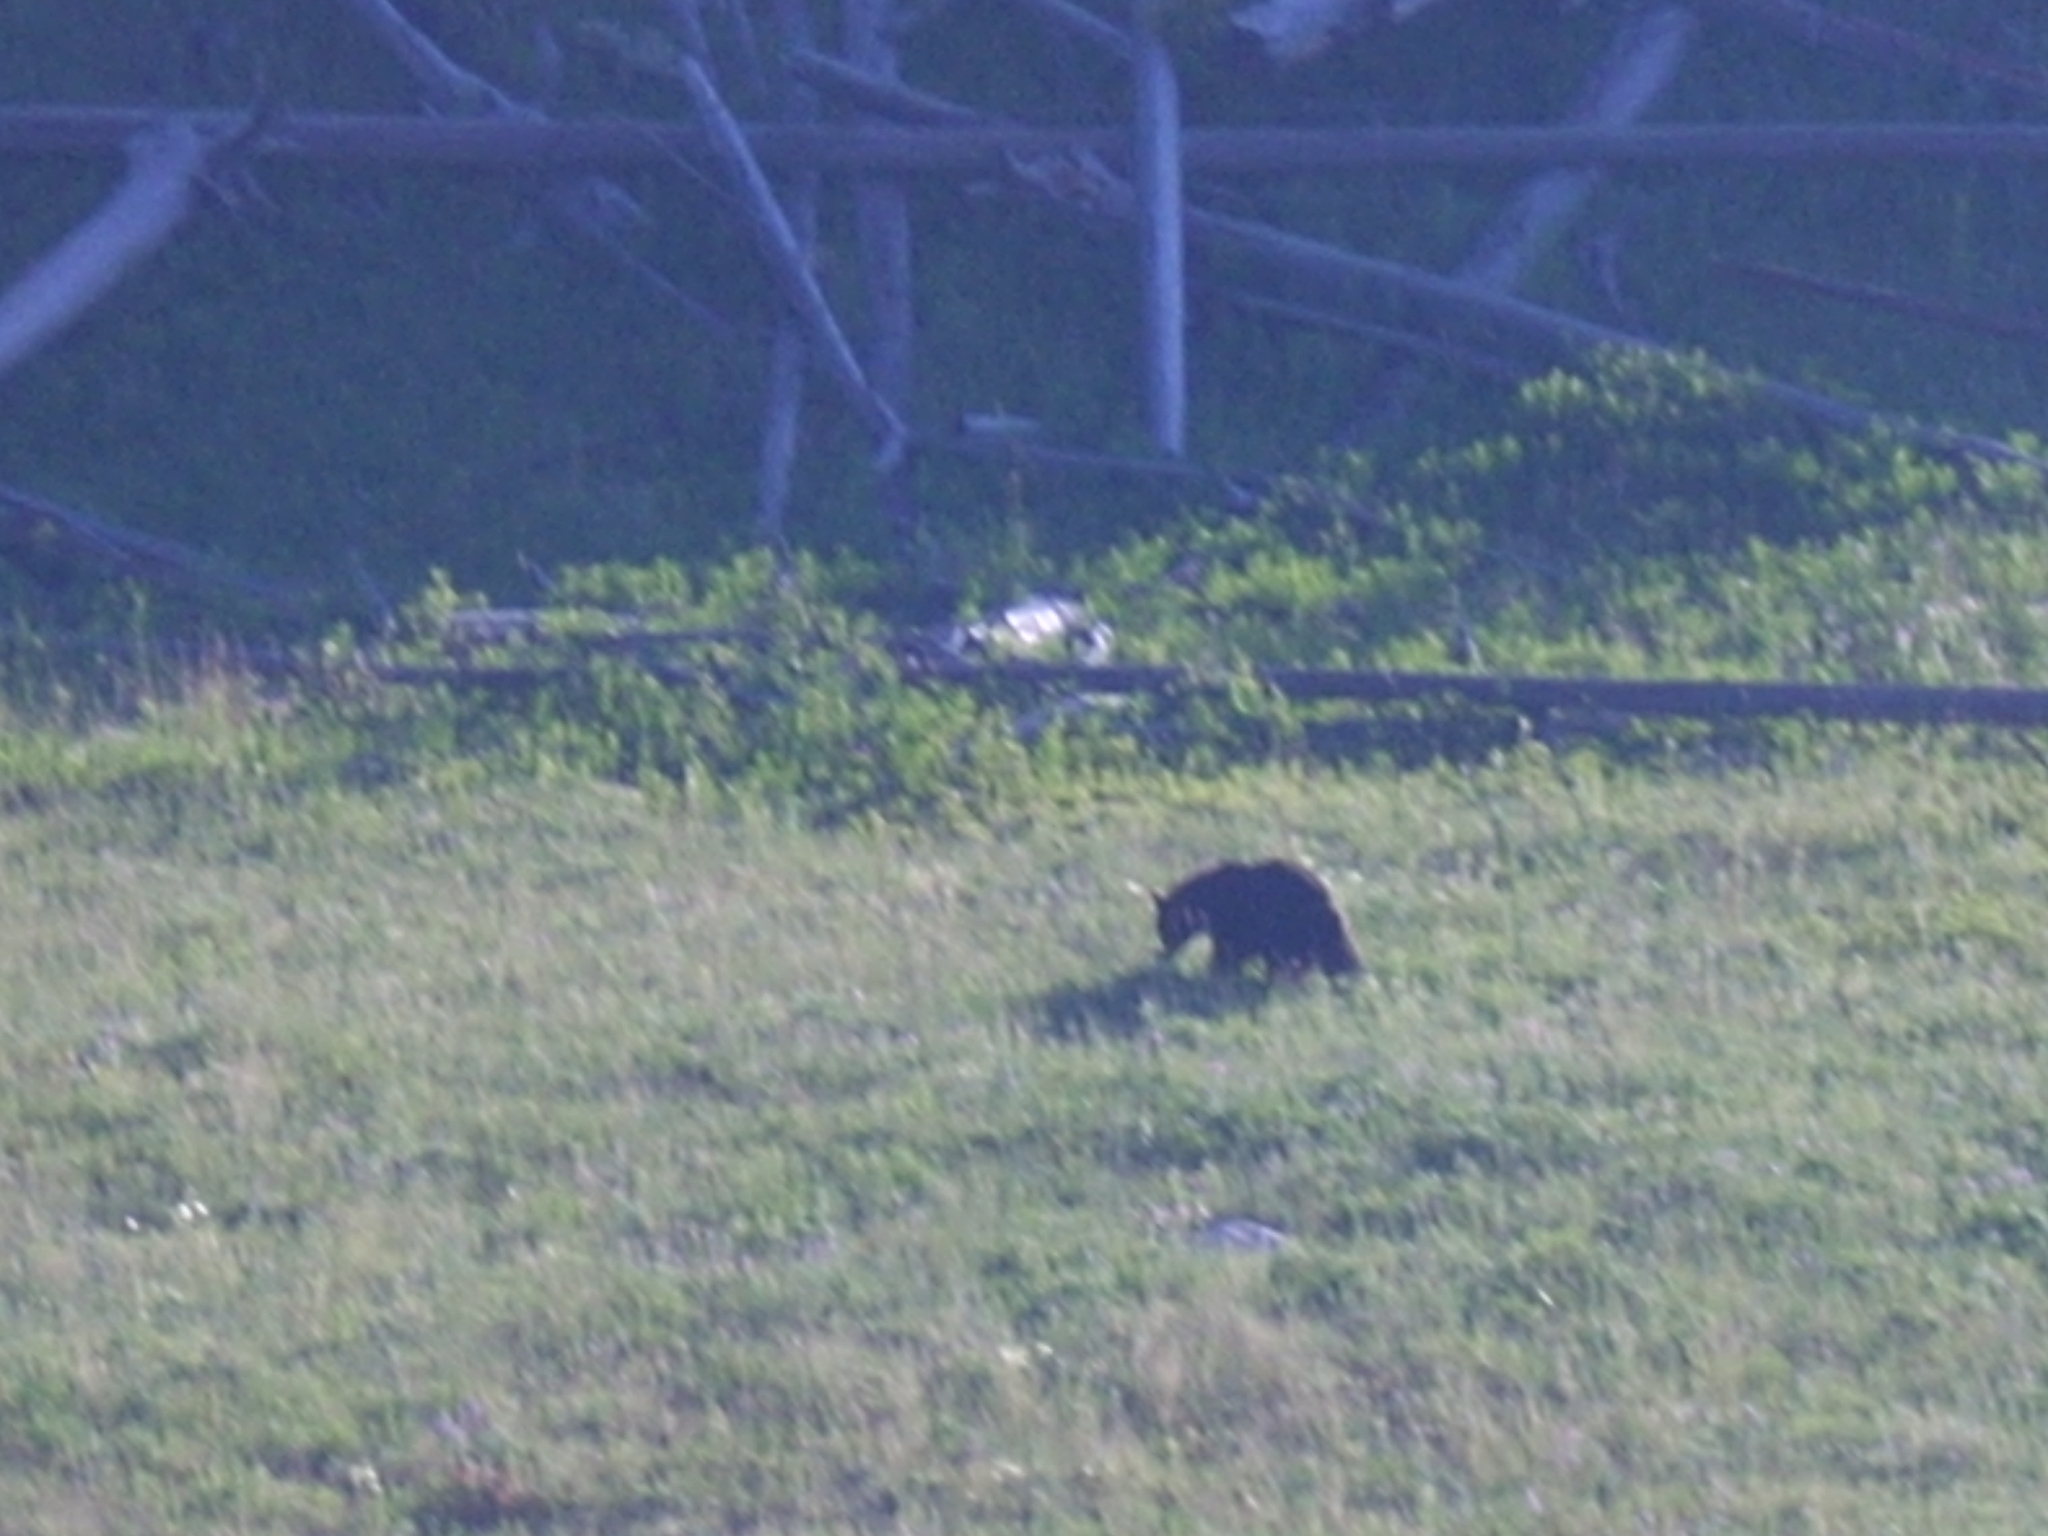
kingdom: Animalia
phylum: Chordata
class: Mammalia
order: Carnivora
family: Ursidae
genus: Ursus
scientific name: Ursus americanus
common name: American black bear
